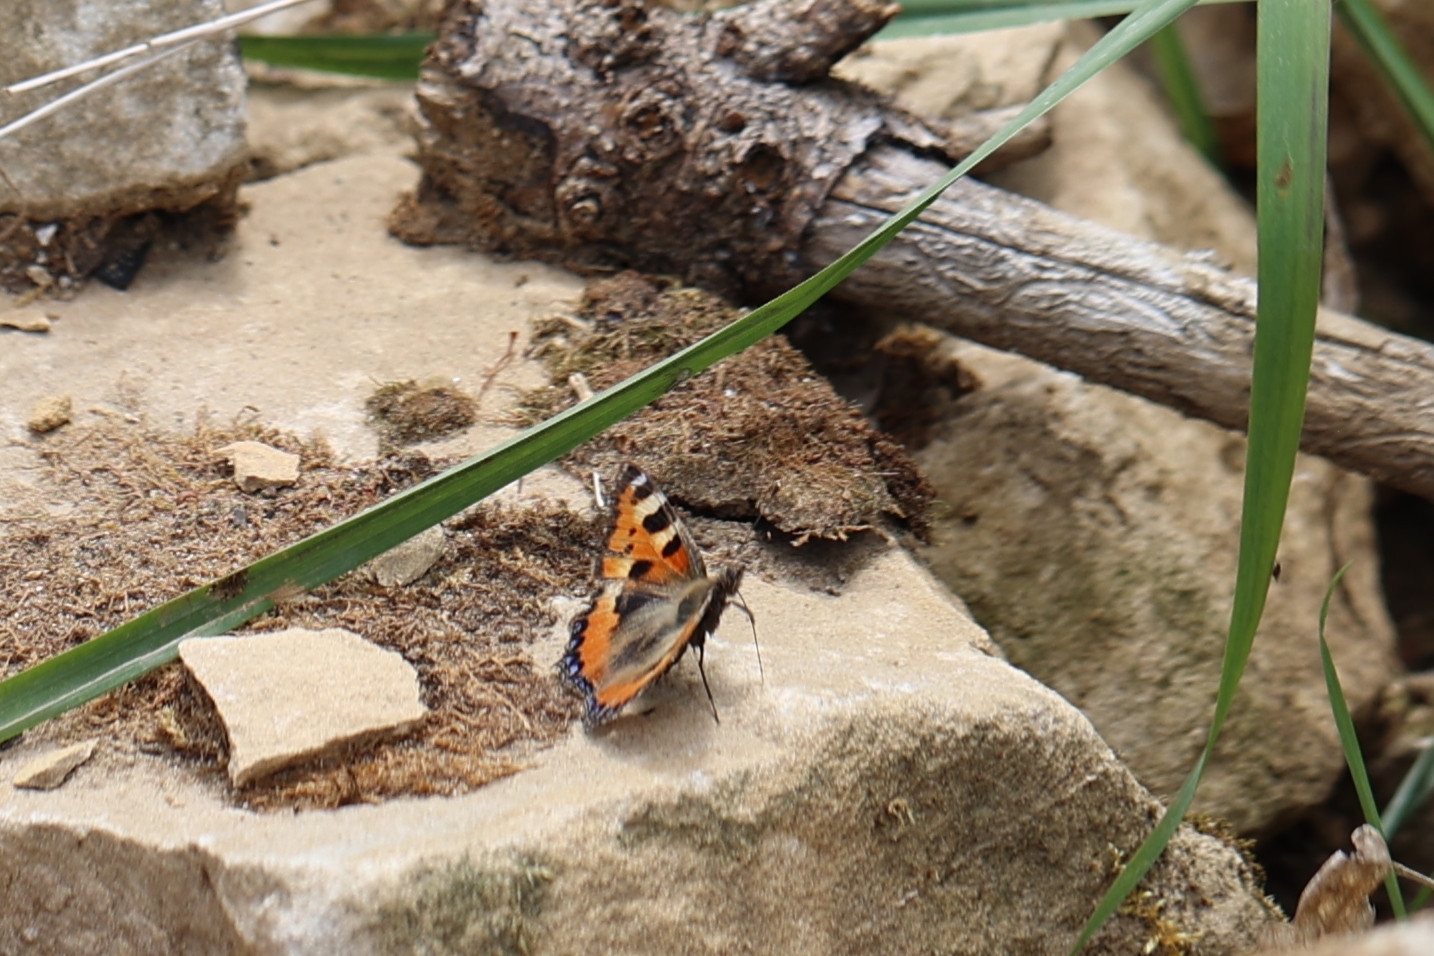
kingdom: Animalia
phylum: Arthropoda
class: Insecta
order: Lepidoptera
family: Nymphalidae
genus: Aglais
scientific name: Aglais urticae
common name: Small tortoiseshell
